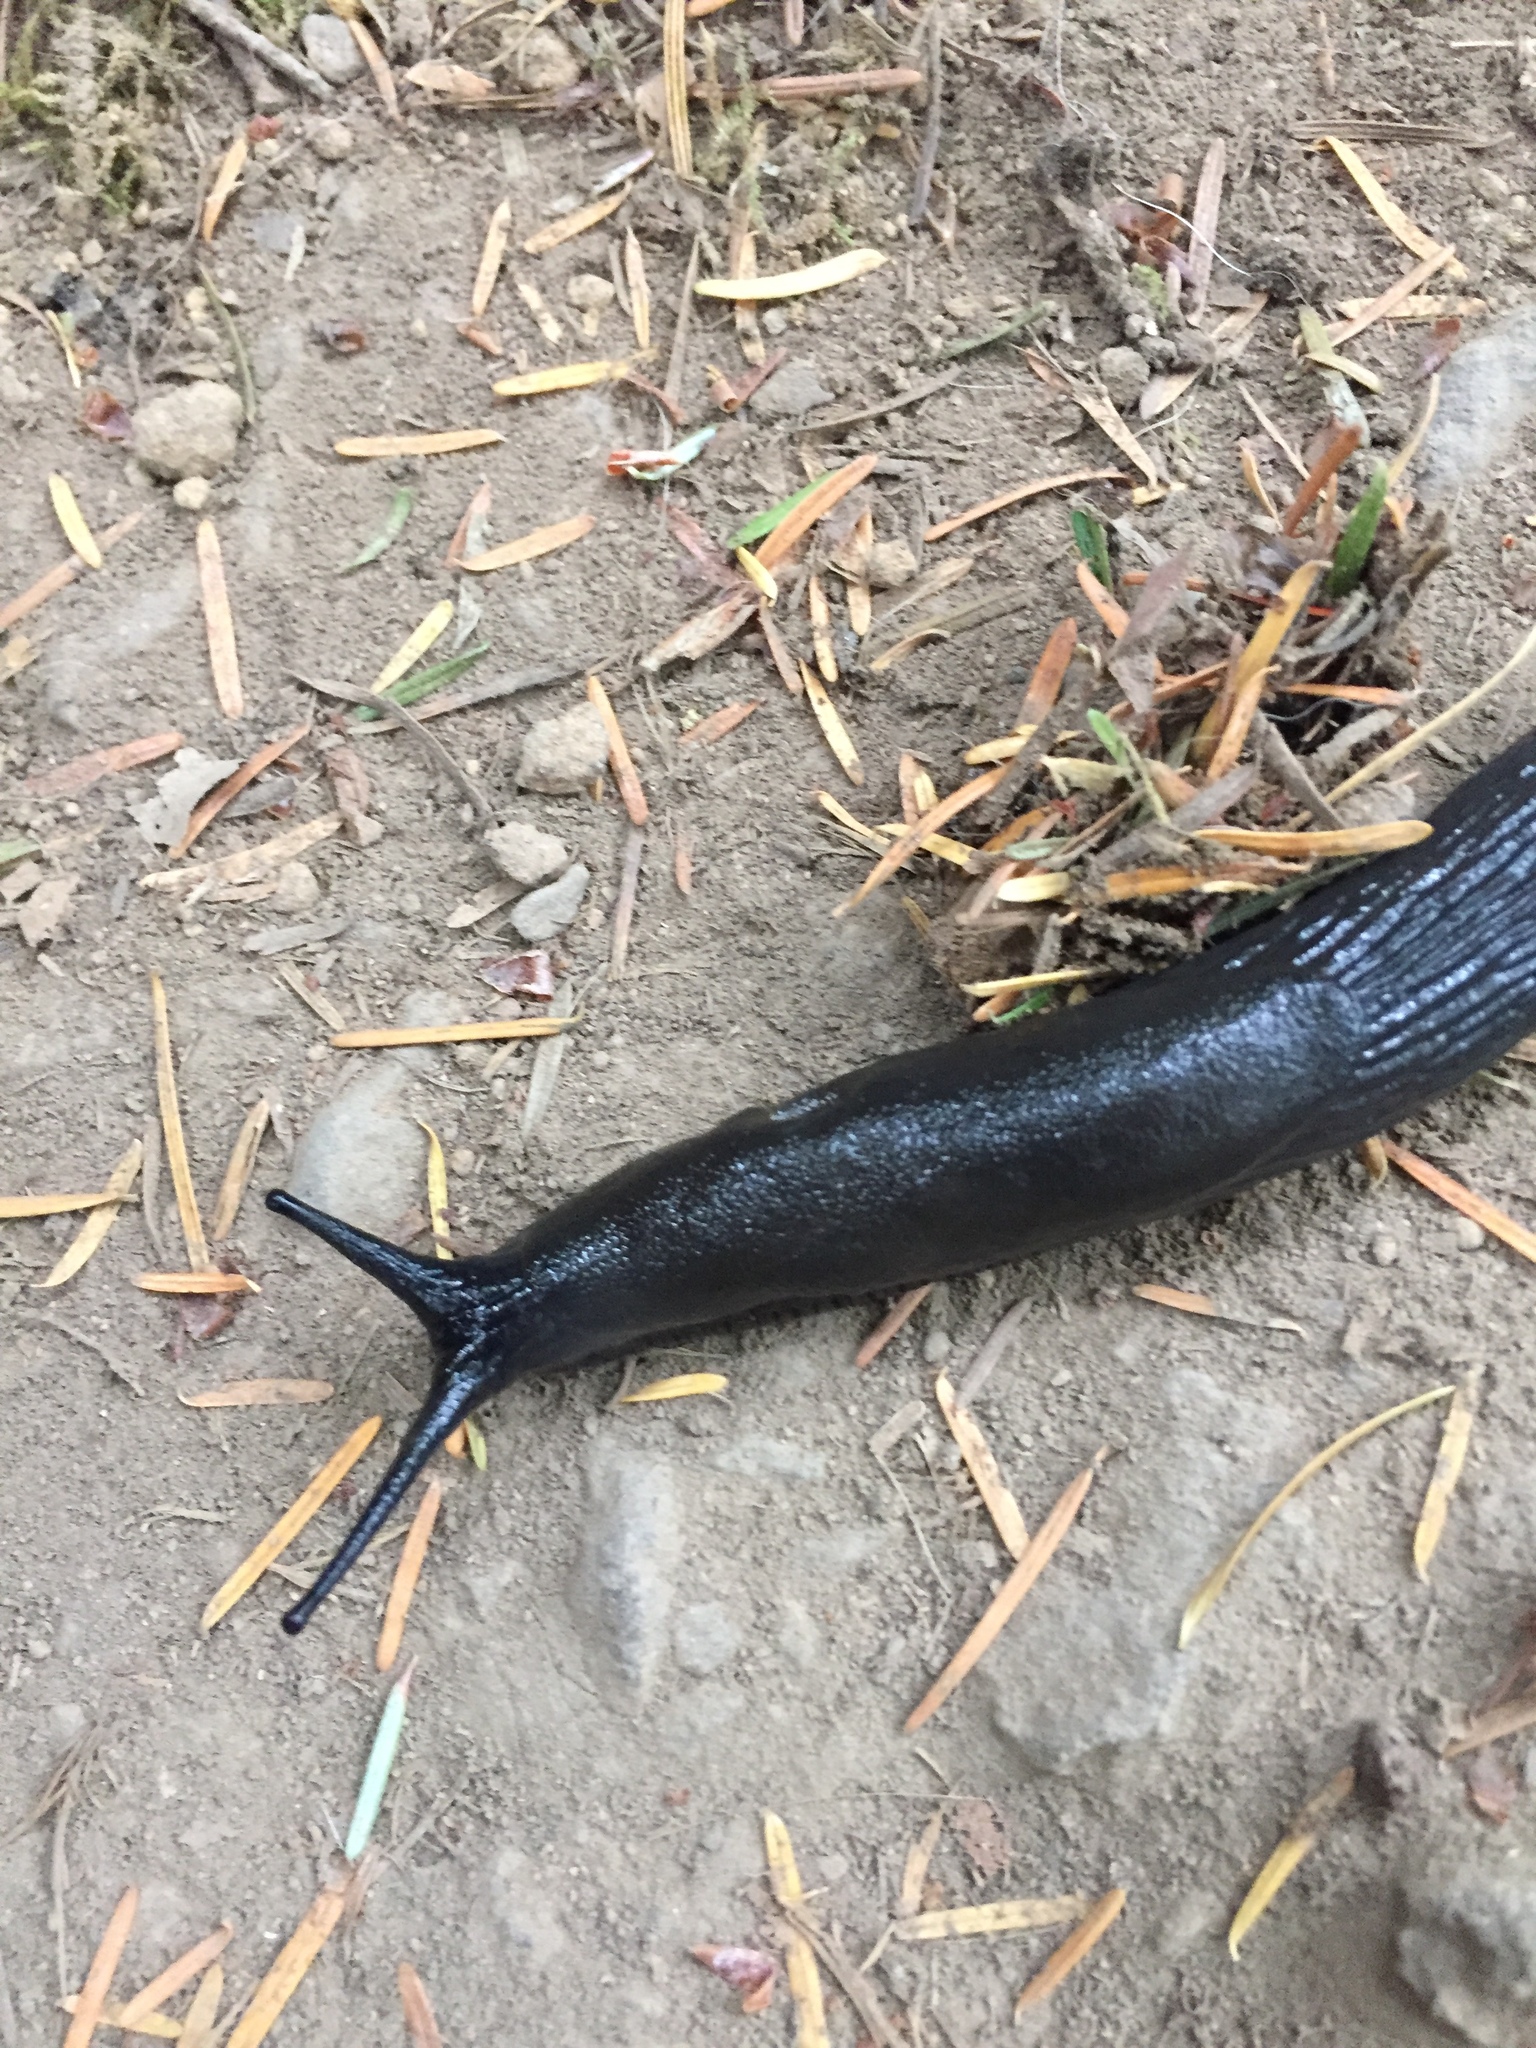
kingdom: Animalia
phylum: Mollusca
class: Gastropoda
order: Stylommatophora
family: Arionidae
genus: Arion
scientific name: Arion
